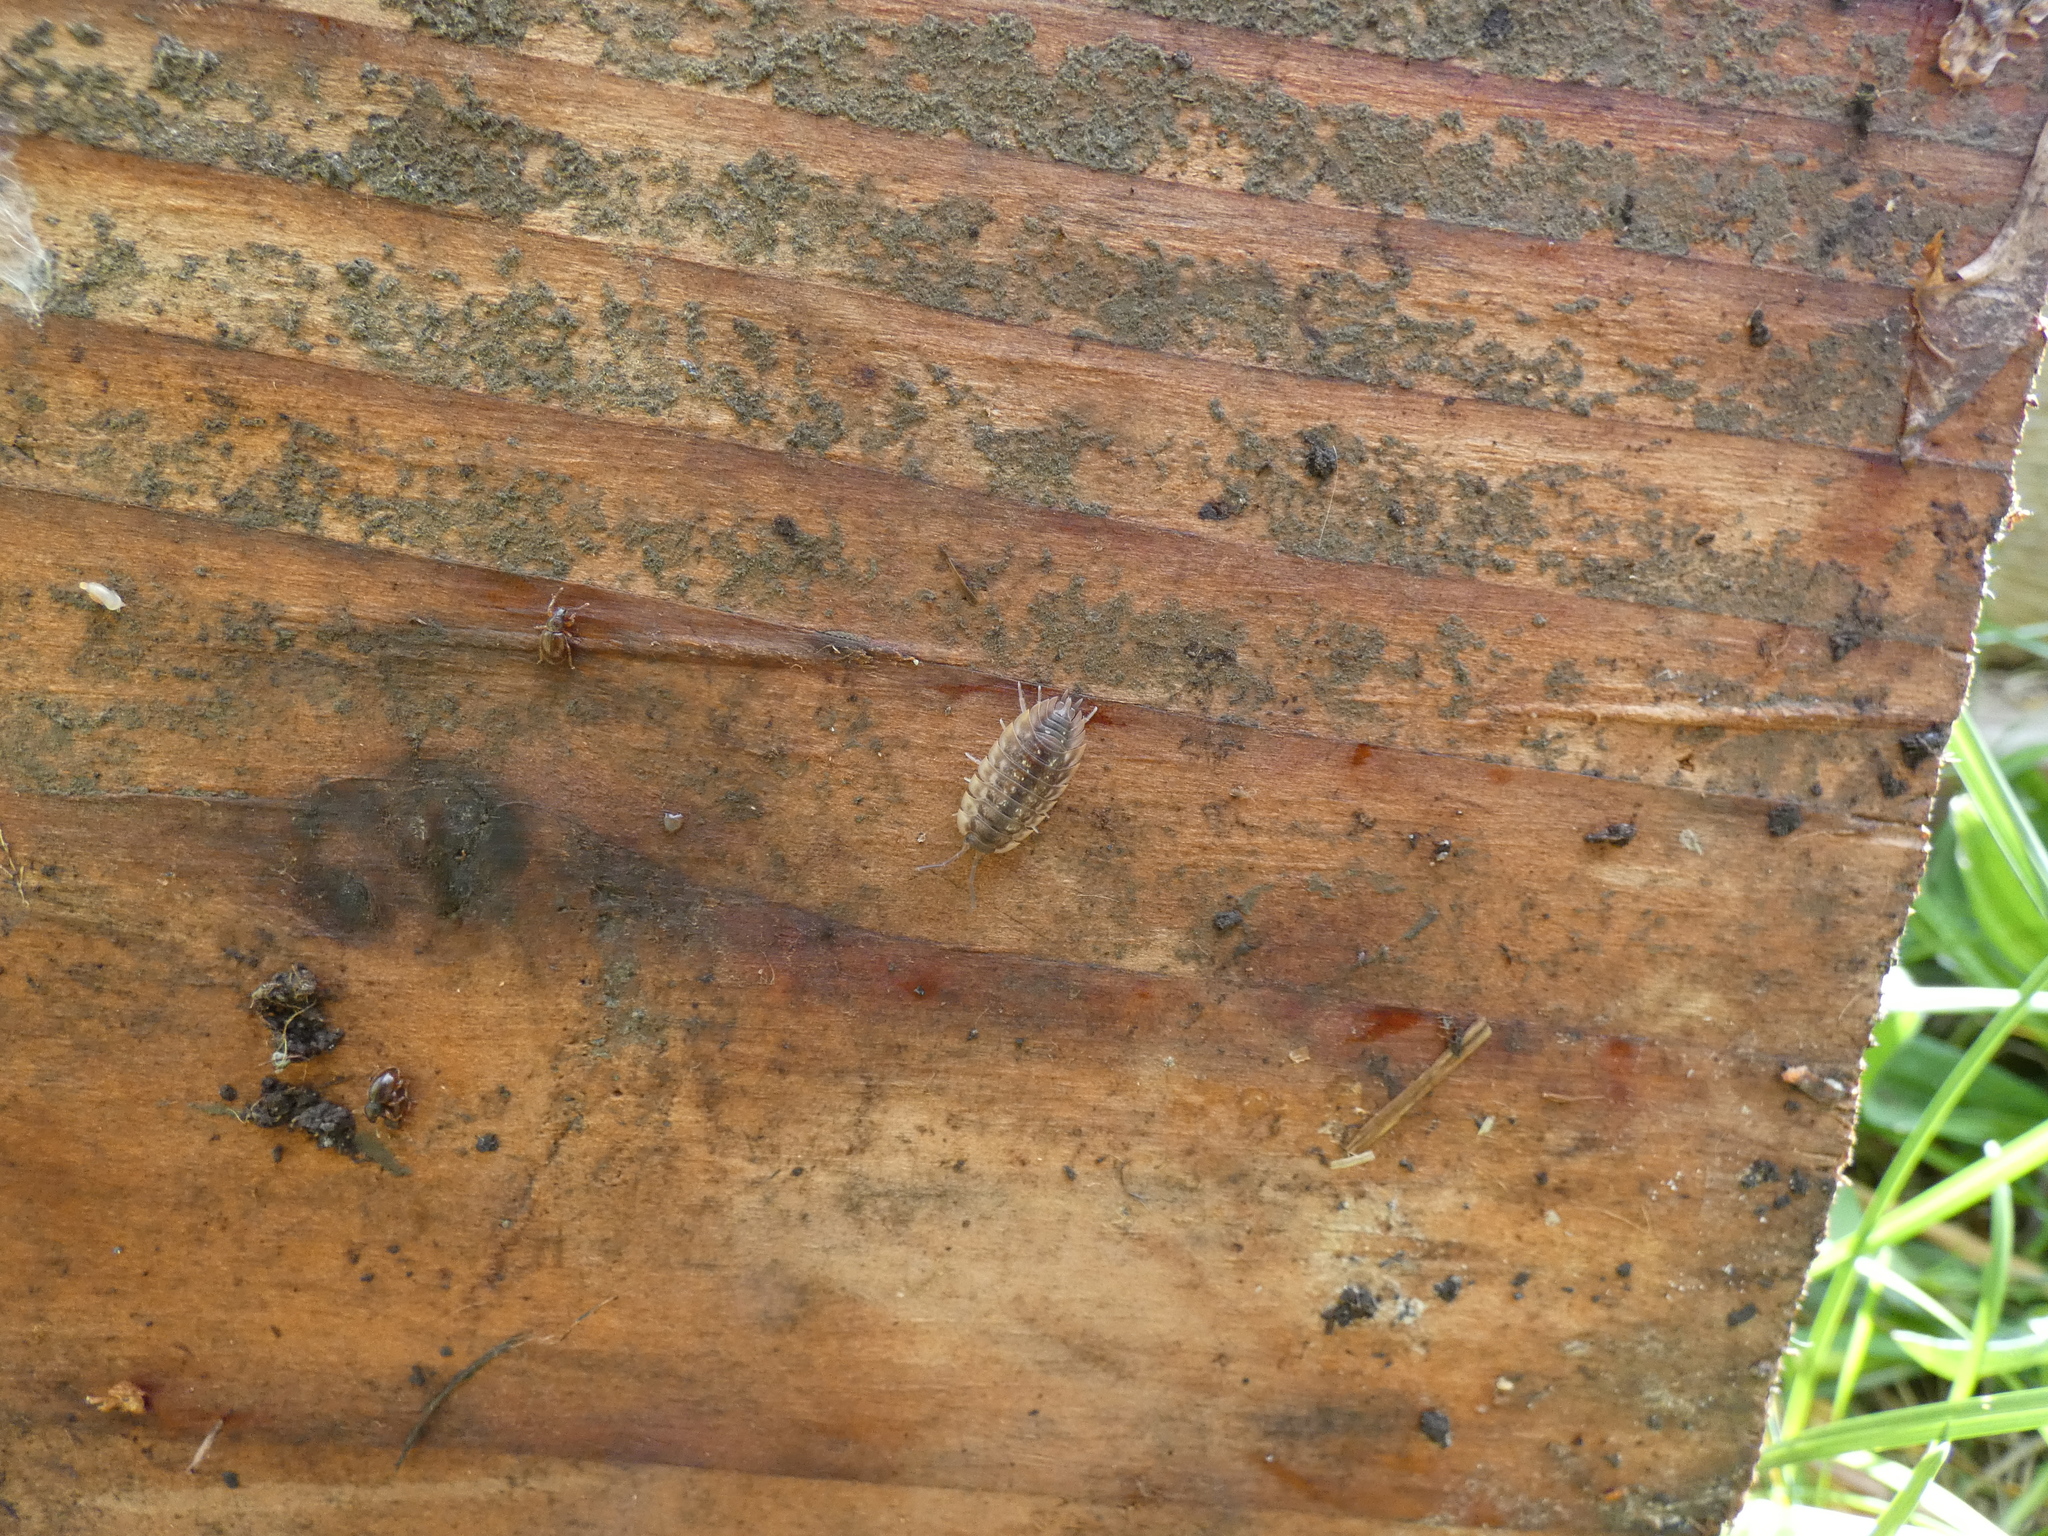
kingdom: Animalia
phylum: Arthropoda
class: Malacostraca
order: Isopoda
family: Oniscidae
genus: Oniscus
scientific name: Oniscus asellus
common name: Common shiny woodlouse
